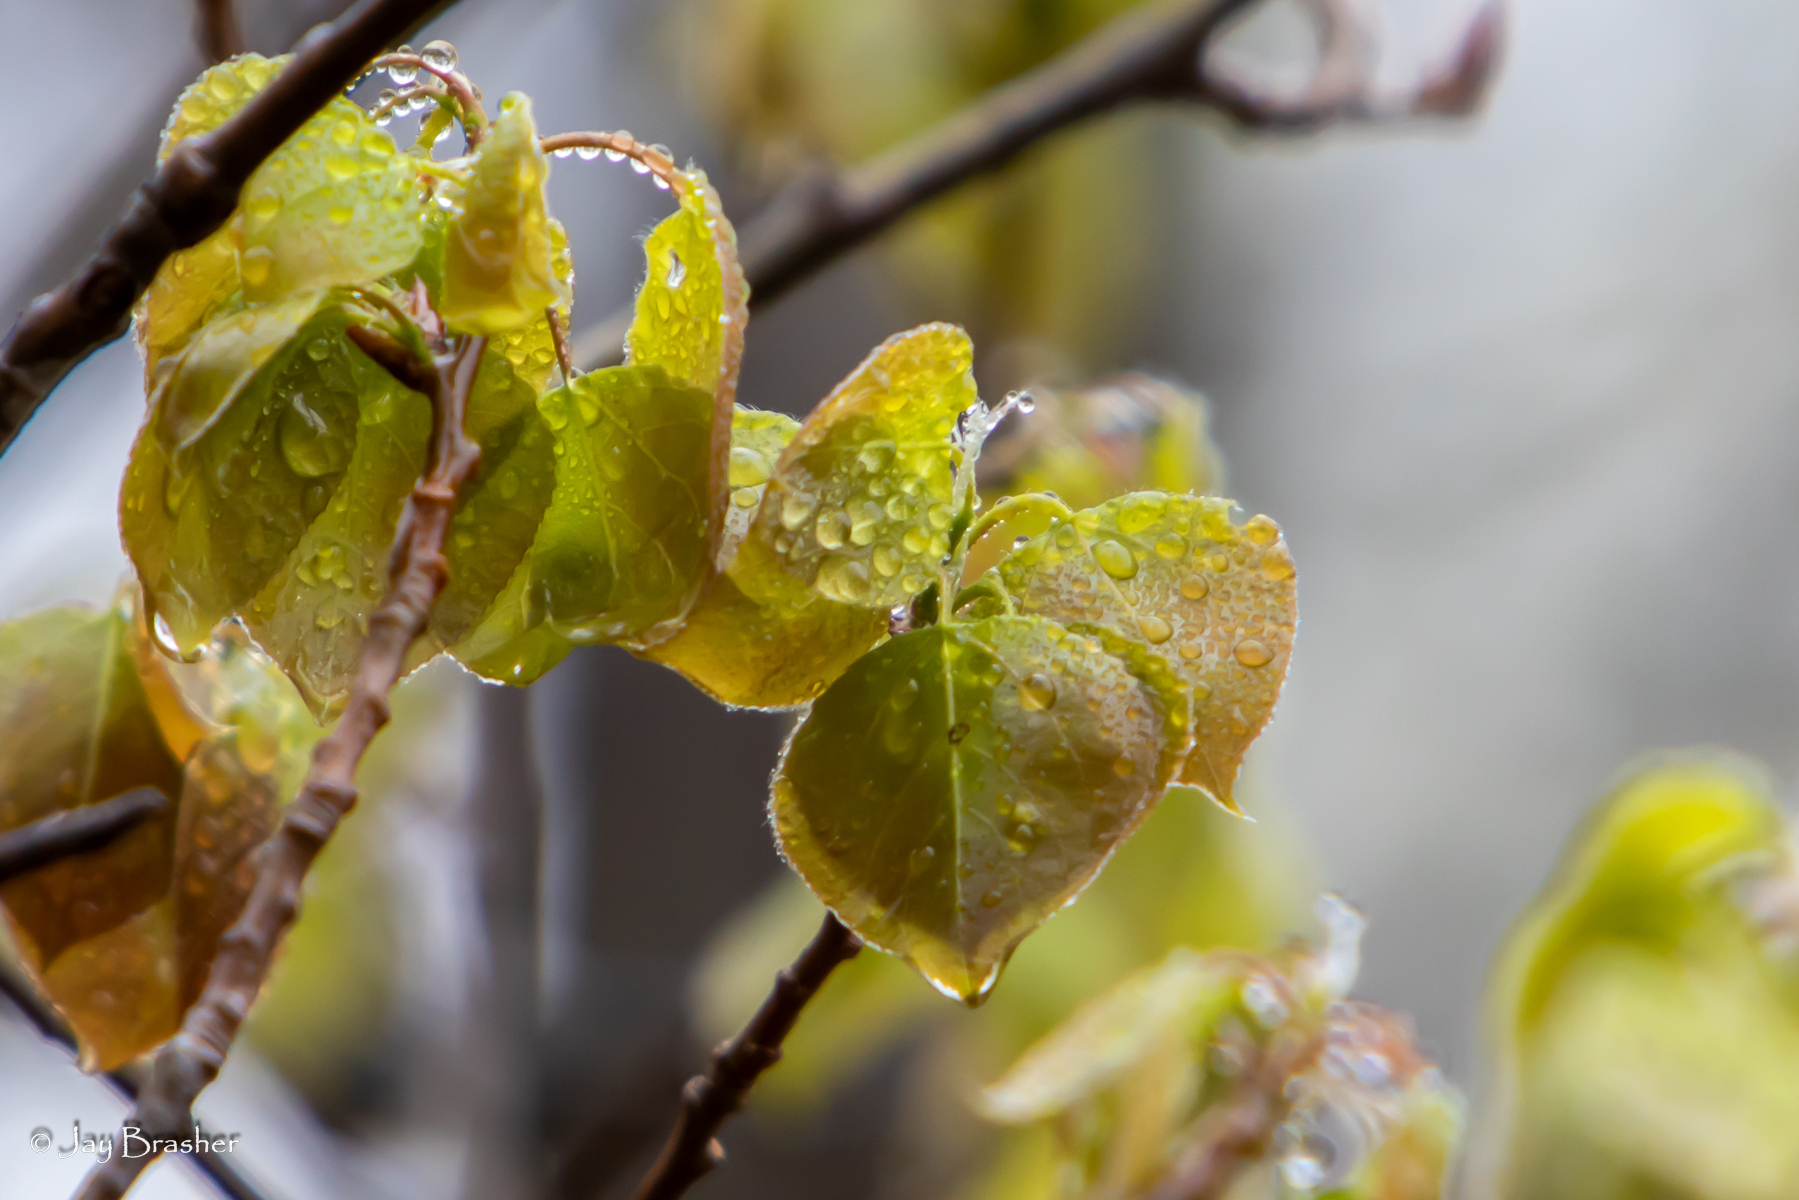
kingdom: Plantae
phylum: Tracheophyta
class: Magnoliopsida
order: Malpighiales
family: Salicaceae
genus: Populus
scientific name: Populus tremuloides
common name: Quaking aspen
